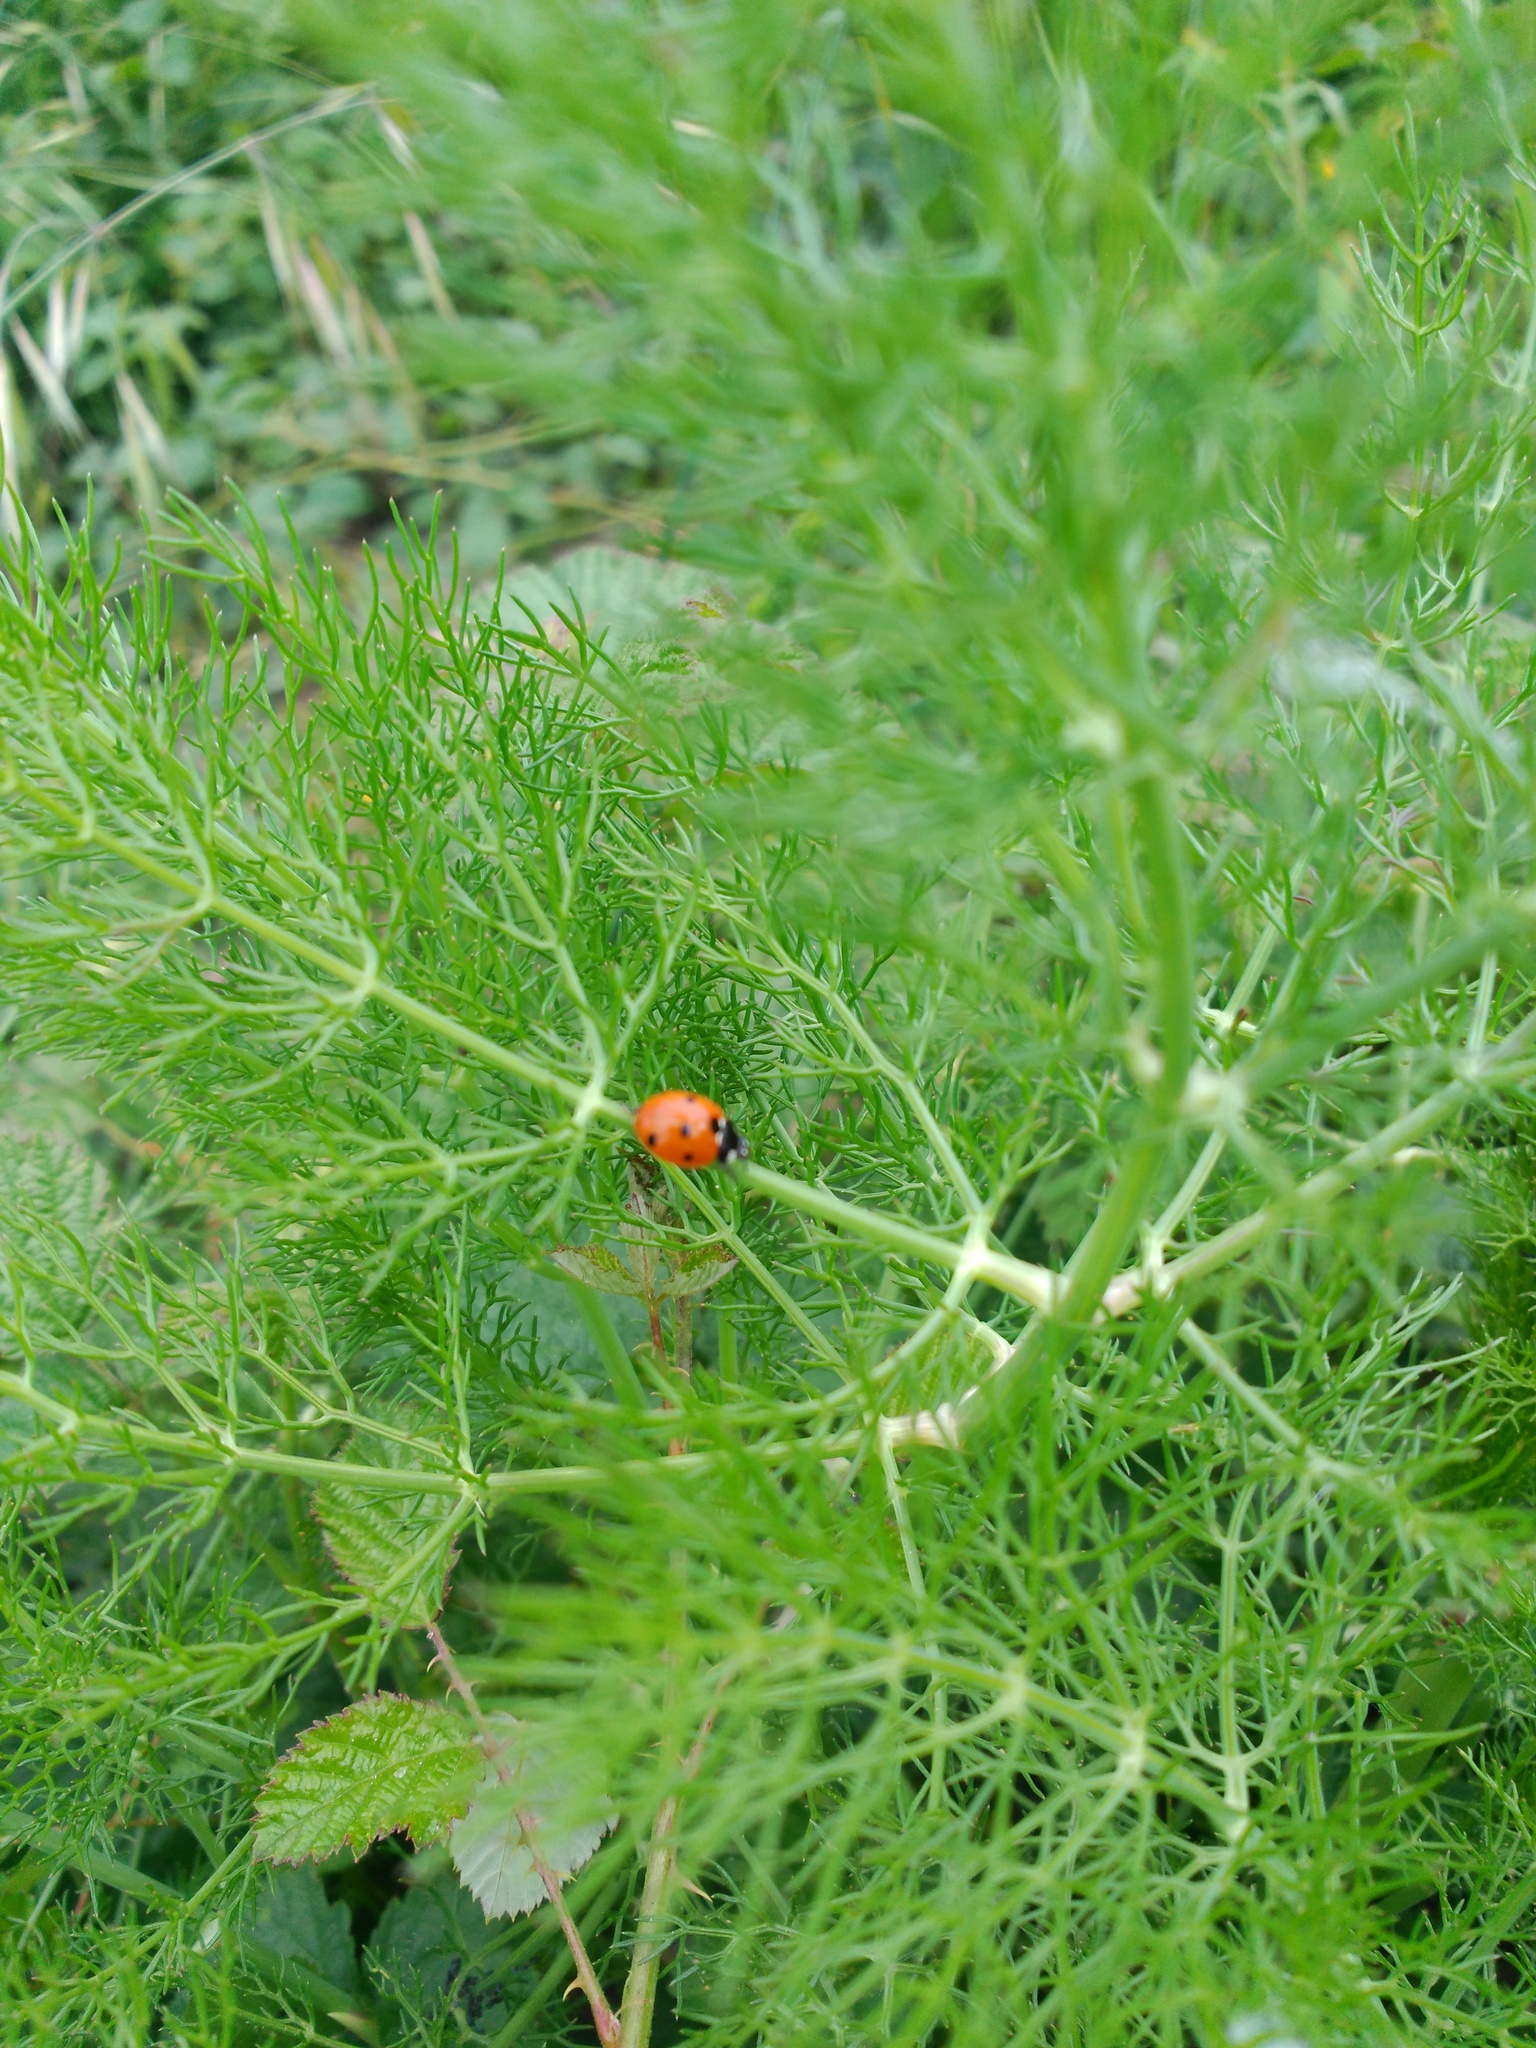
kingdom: Animalia
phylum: Arthropoda
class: Insecta
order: Coleoptera
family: Coccinellidae
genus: Coccinella
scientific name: Coccinella septempunctata
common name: Sevenspotted lady beetle
